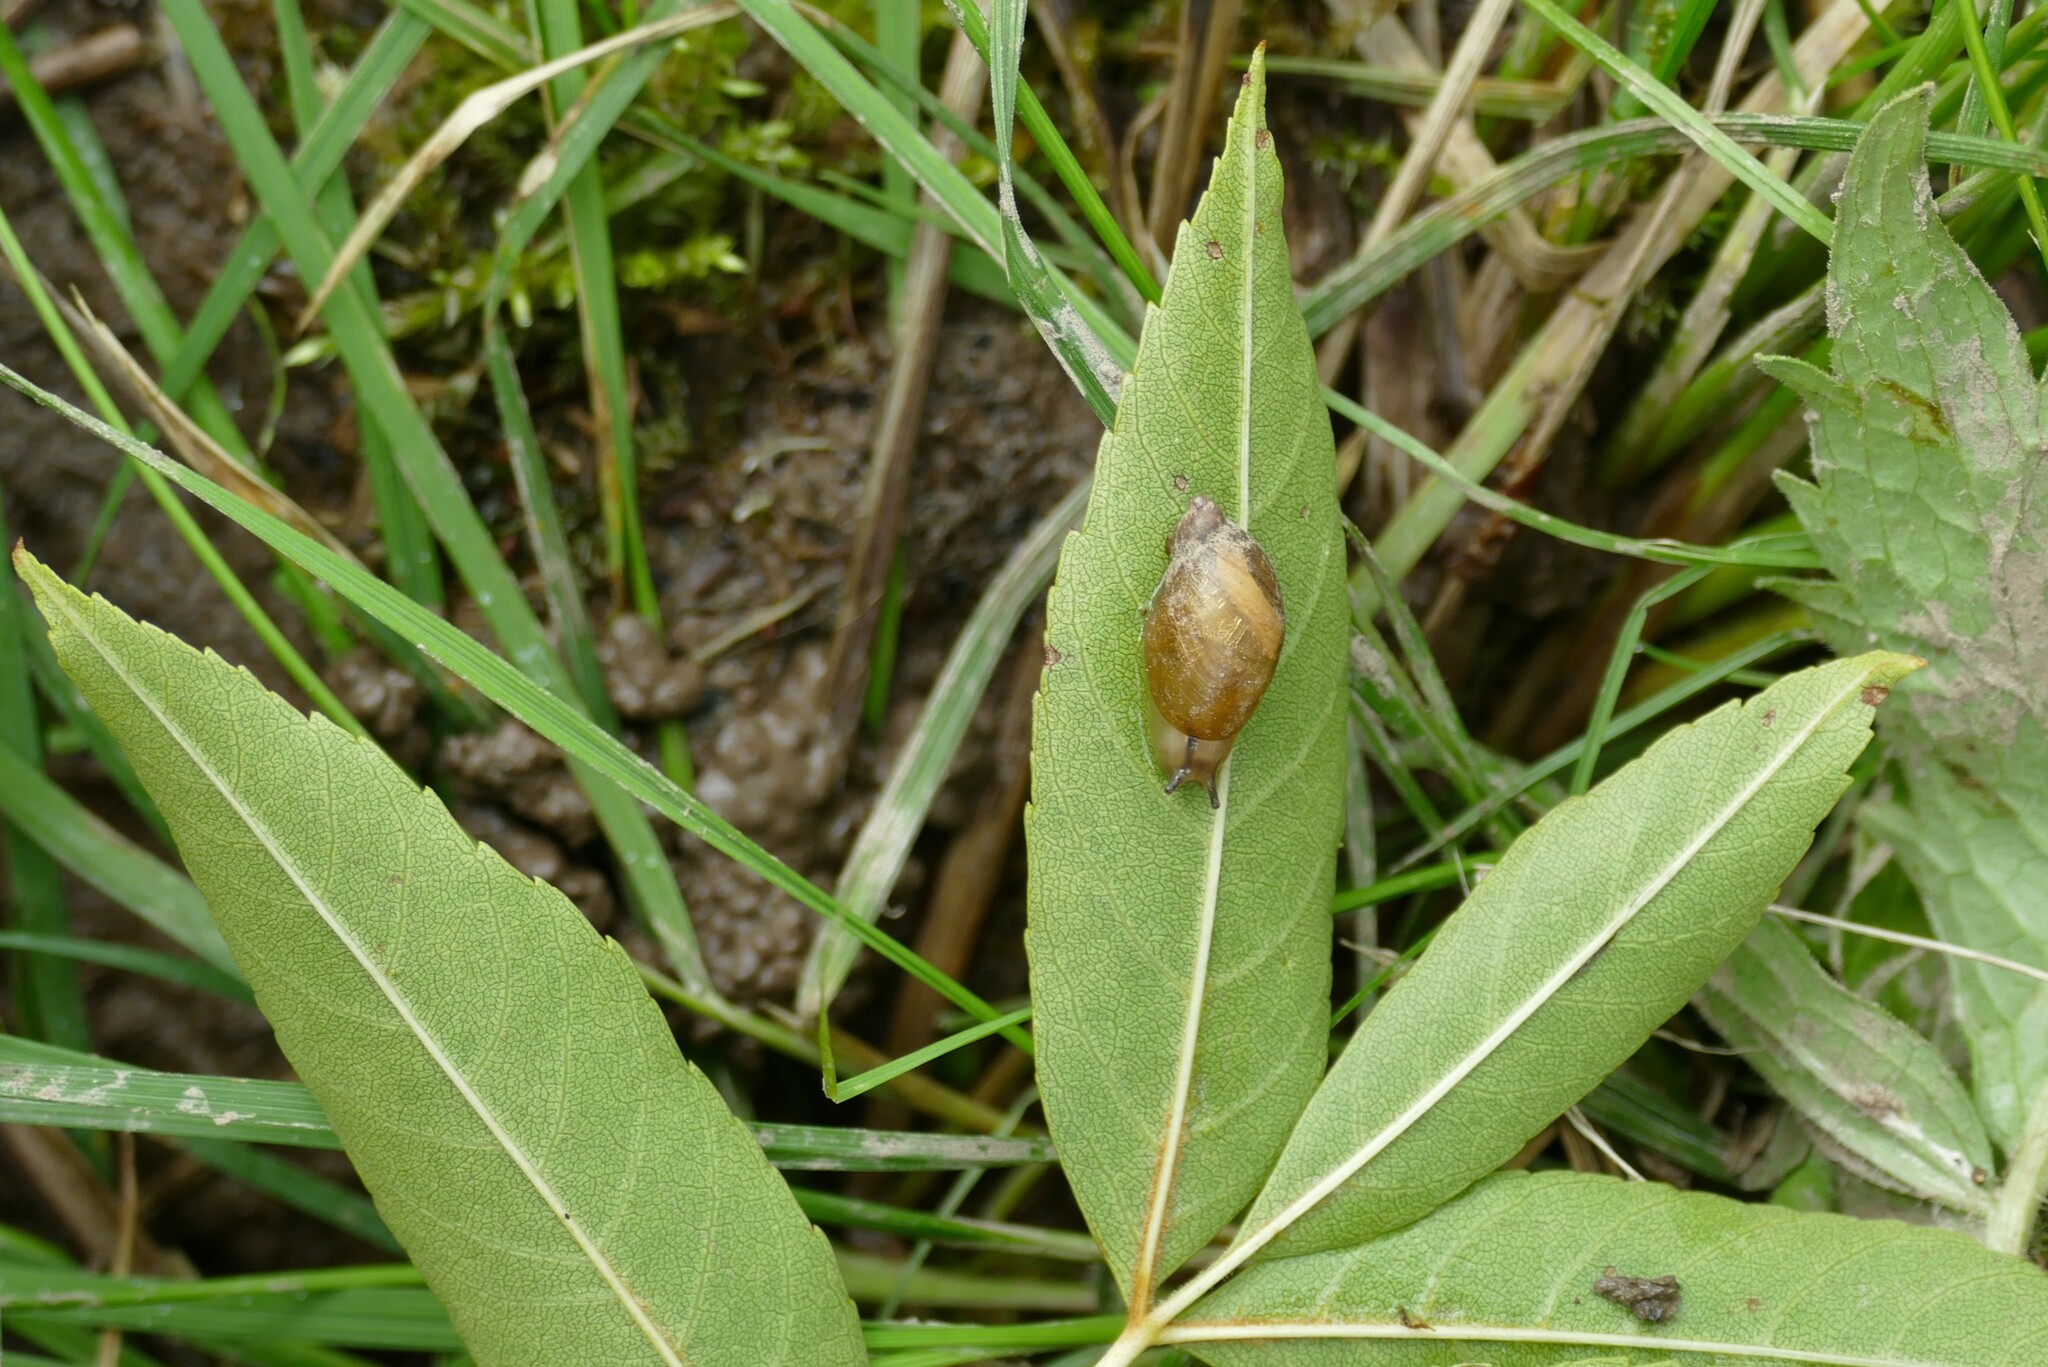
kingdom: Animalia
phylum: Mollusca
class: Gastropoda
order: Stylommatophora
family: Succineidae
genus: Succinea
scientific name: Succinea putris
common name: European ambersnail
